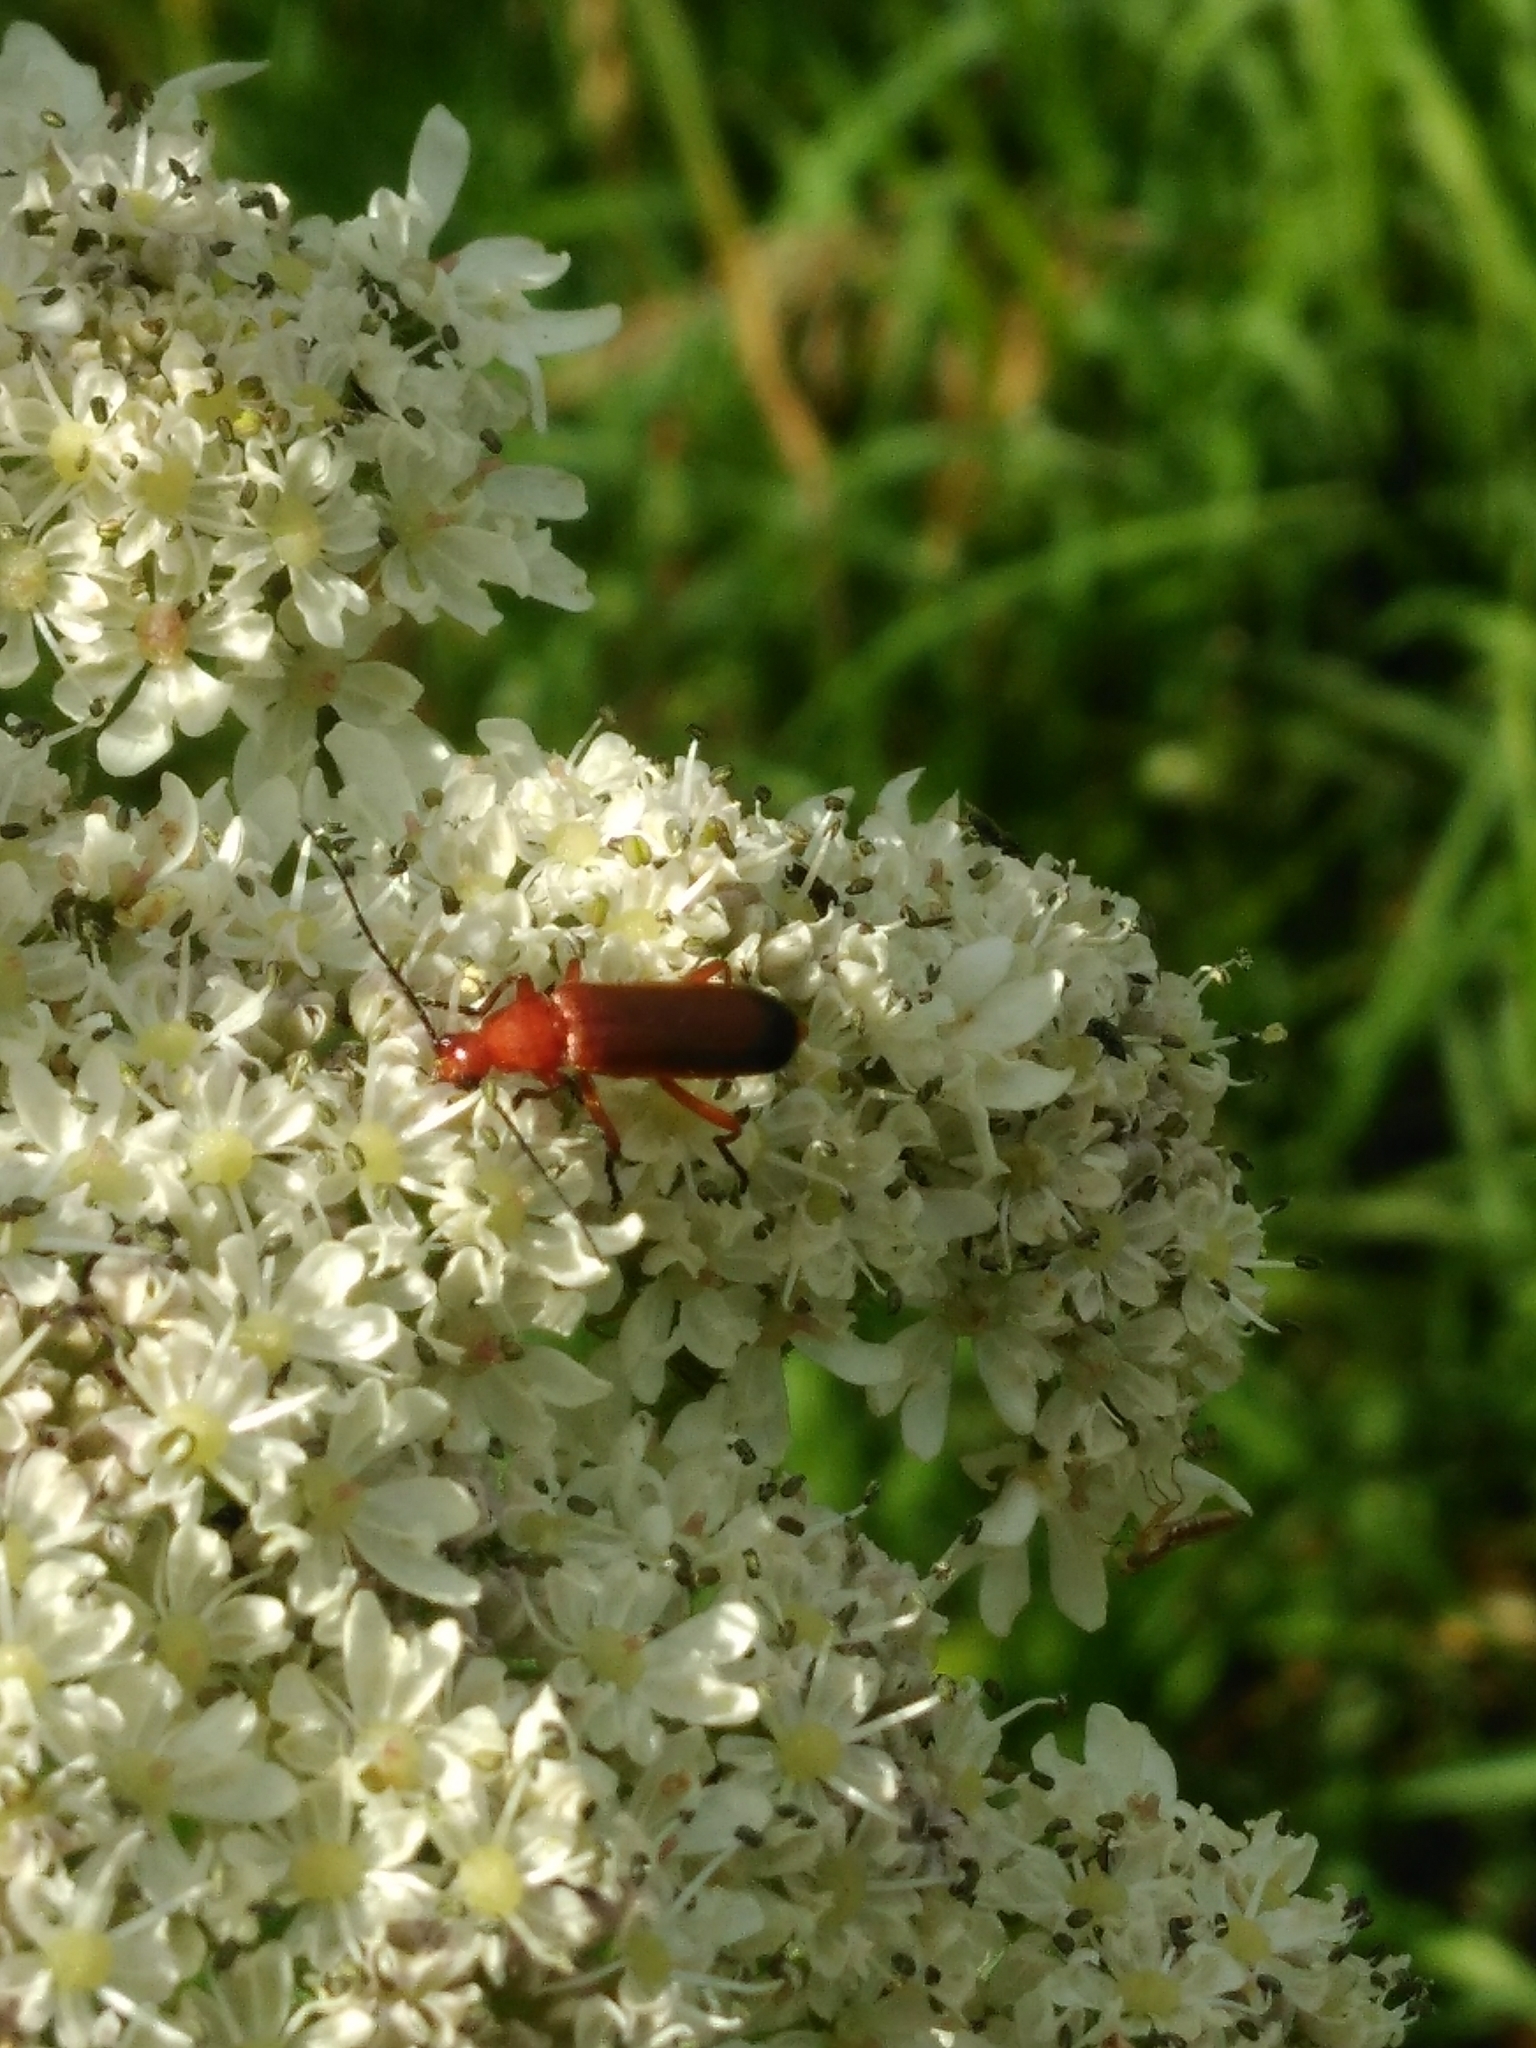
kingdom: Animalia
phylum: Arthropoda
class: Insecta
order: Coleoptera
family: Cantharidae
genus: Rhagonycha
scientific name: Rhagonycha fulva
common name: Common red soldier beetle
